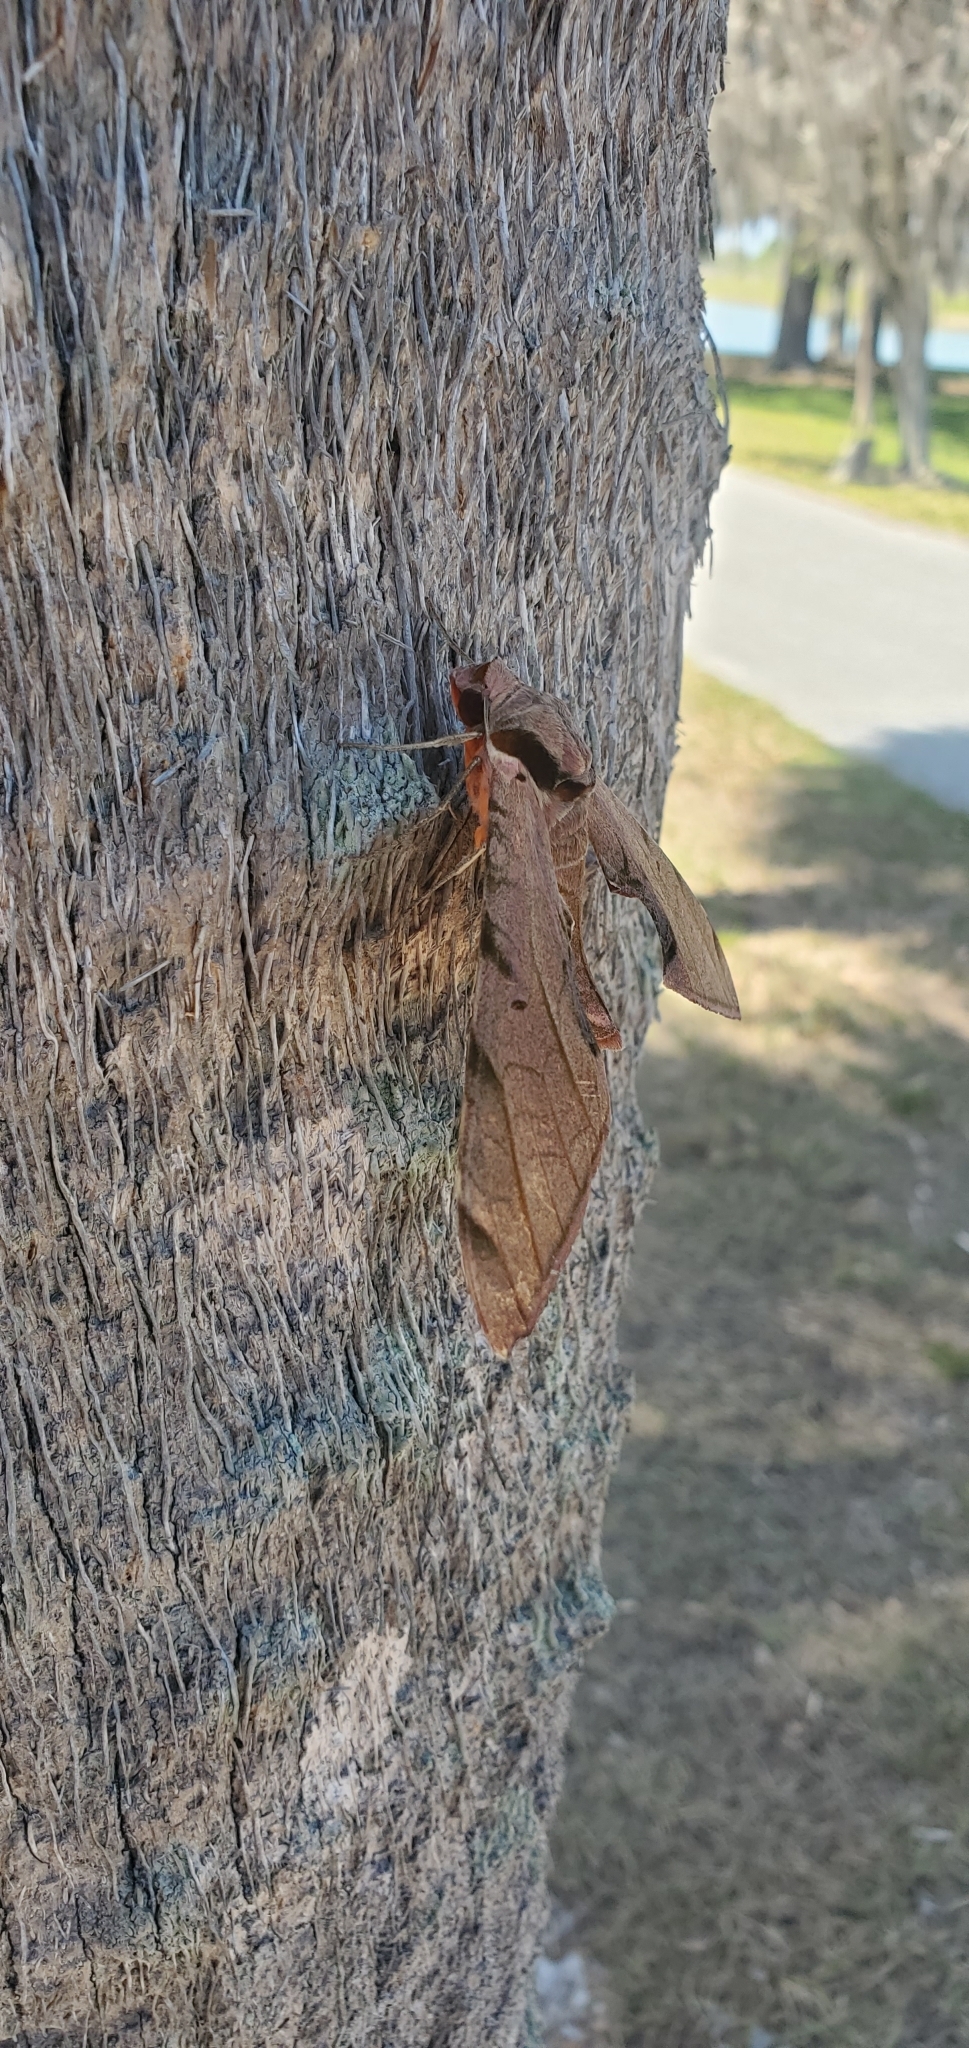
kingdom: Animalia
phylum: Arthropoda
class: Insecta
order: Lepidoptera
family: Sphingidae
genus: Protambulyx
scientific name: Protambulyx strigilis
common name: Streaked sphinx
